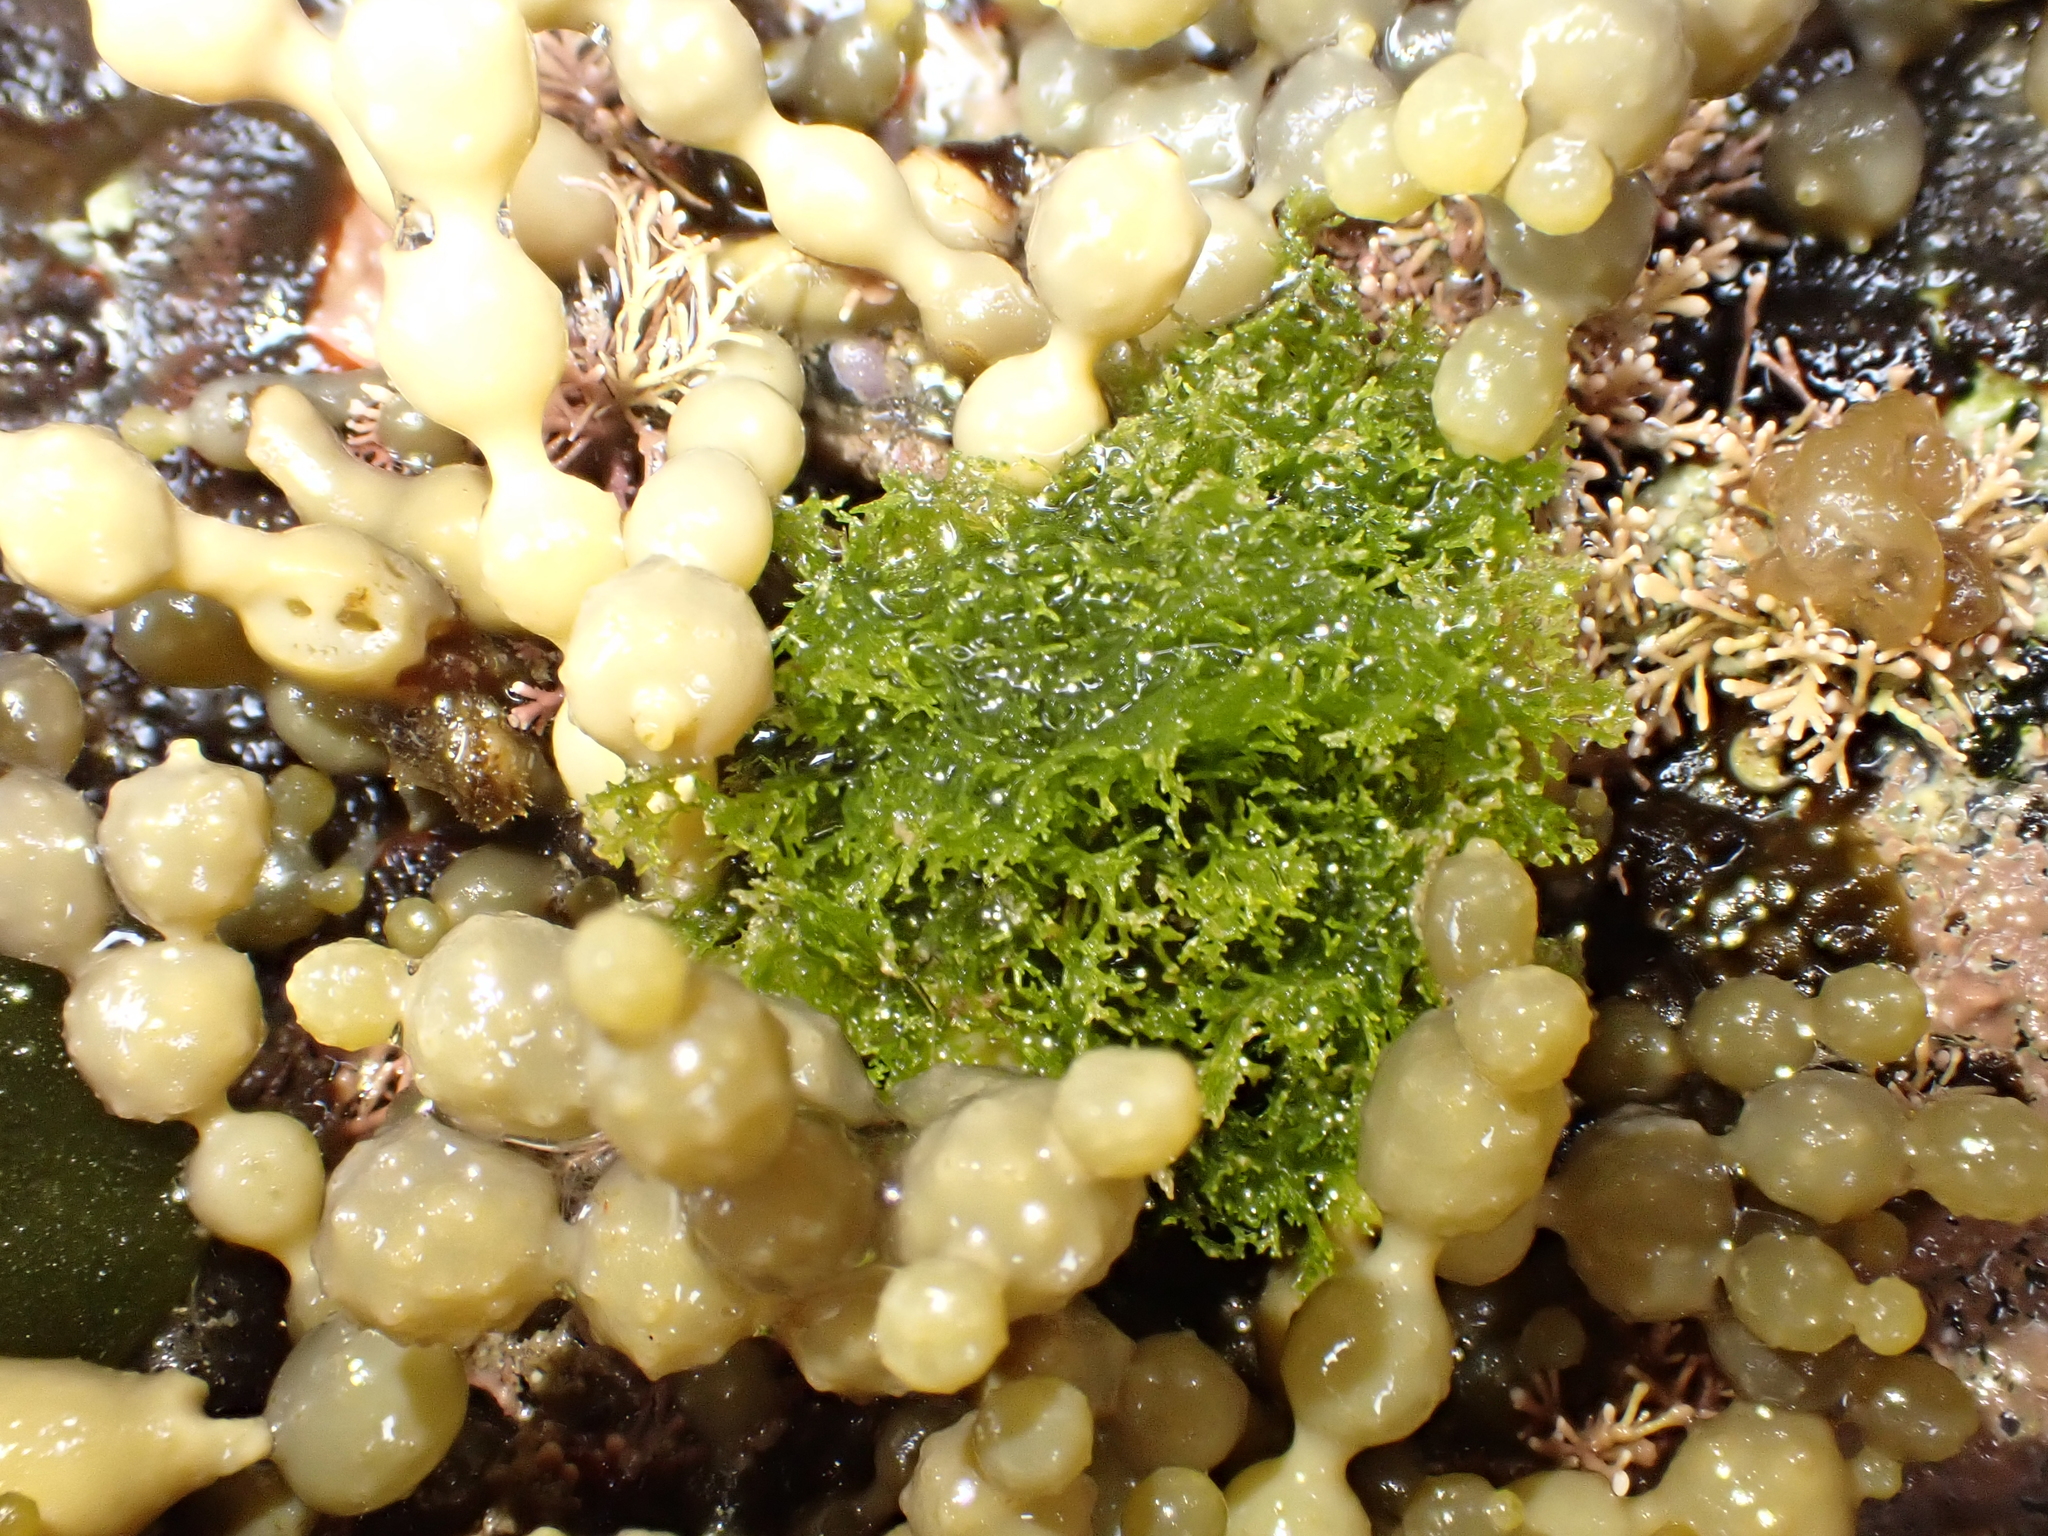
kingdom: Plantae
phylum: Chlorophyta
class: Ulvophyceae
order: Cladophorales
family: Anadyomenaceae
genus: Microdictyon
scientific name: Microdictyon mutabile
